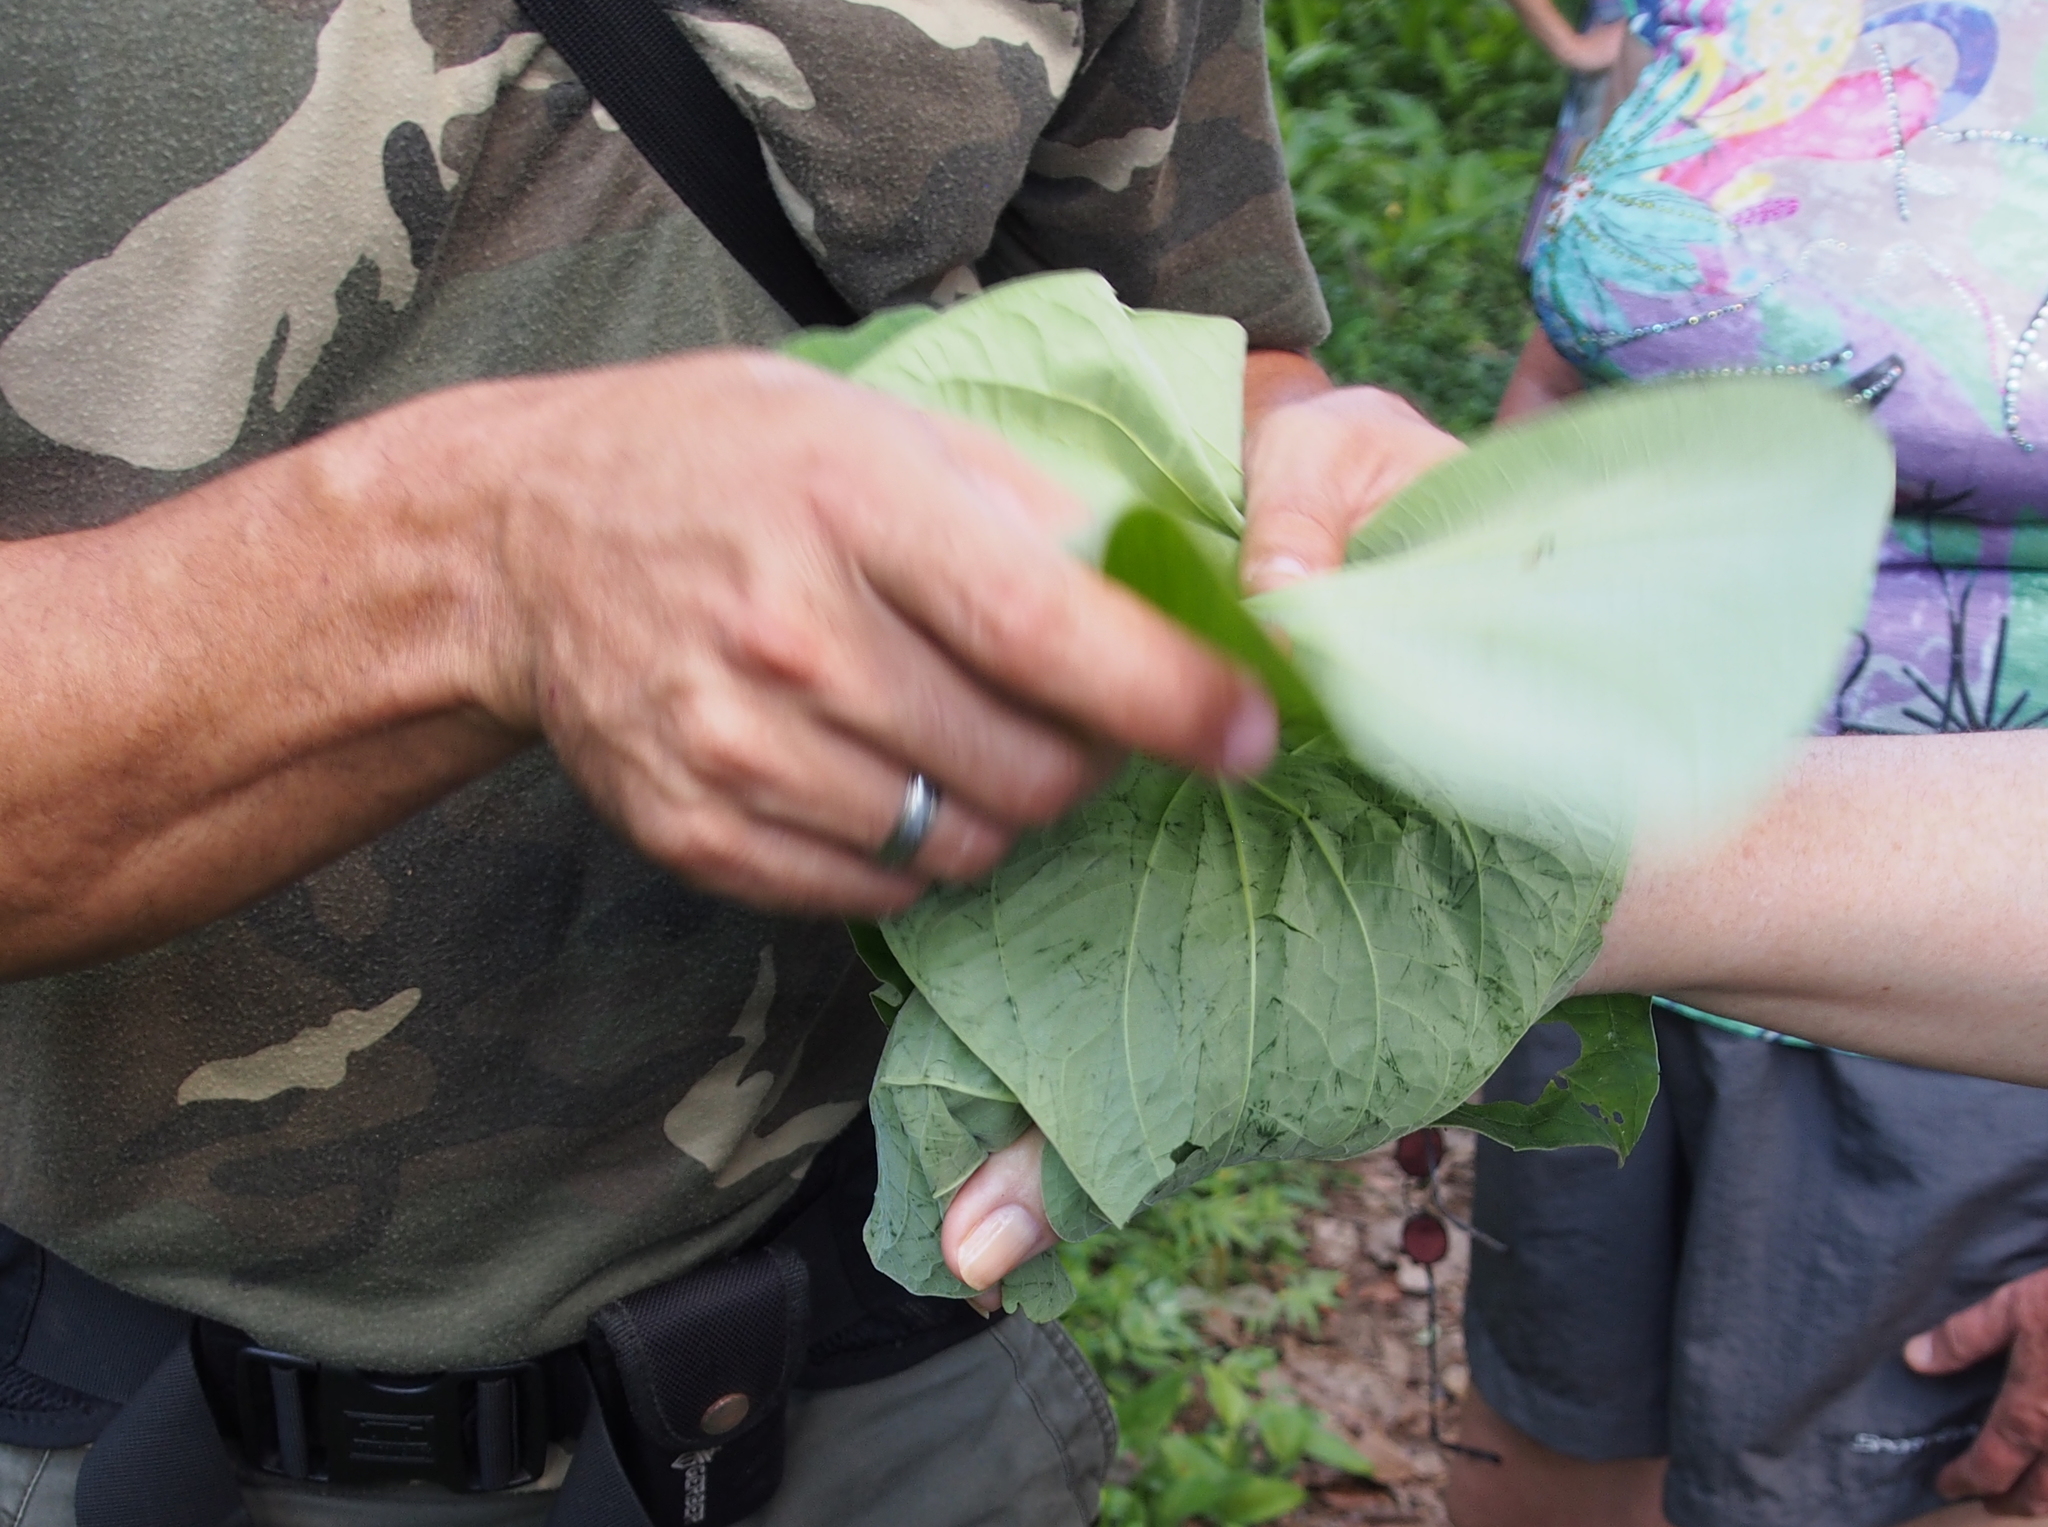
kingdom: Plantae
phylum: Tracheophyta
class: Magnoliopsida
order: Piperales
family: Piperaceae
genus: Piper
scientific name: Piper auritum
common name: Vera cruz pepper
